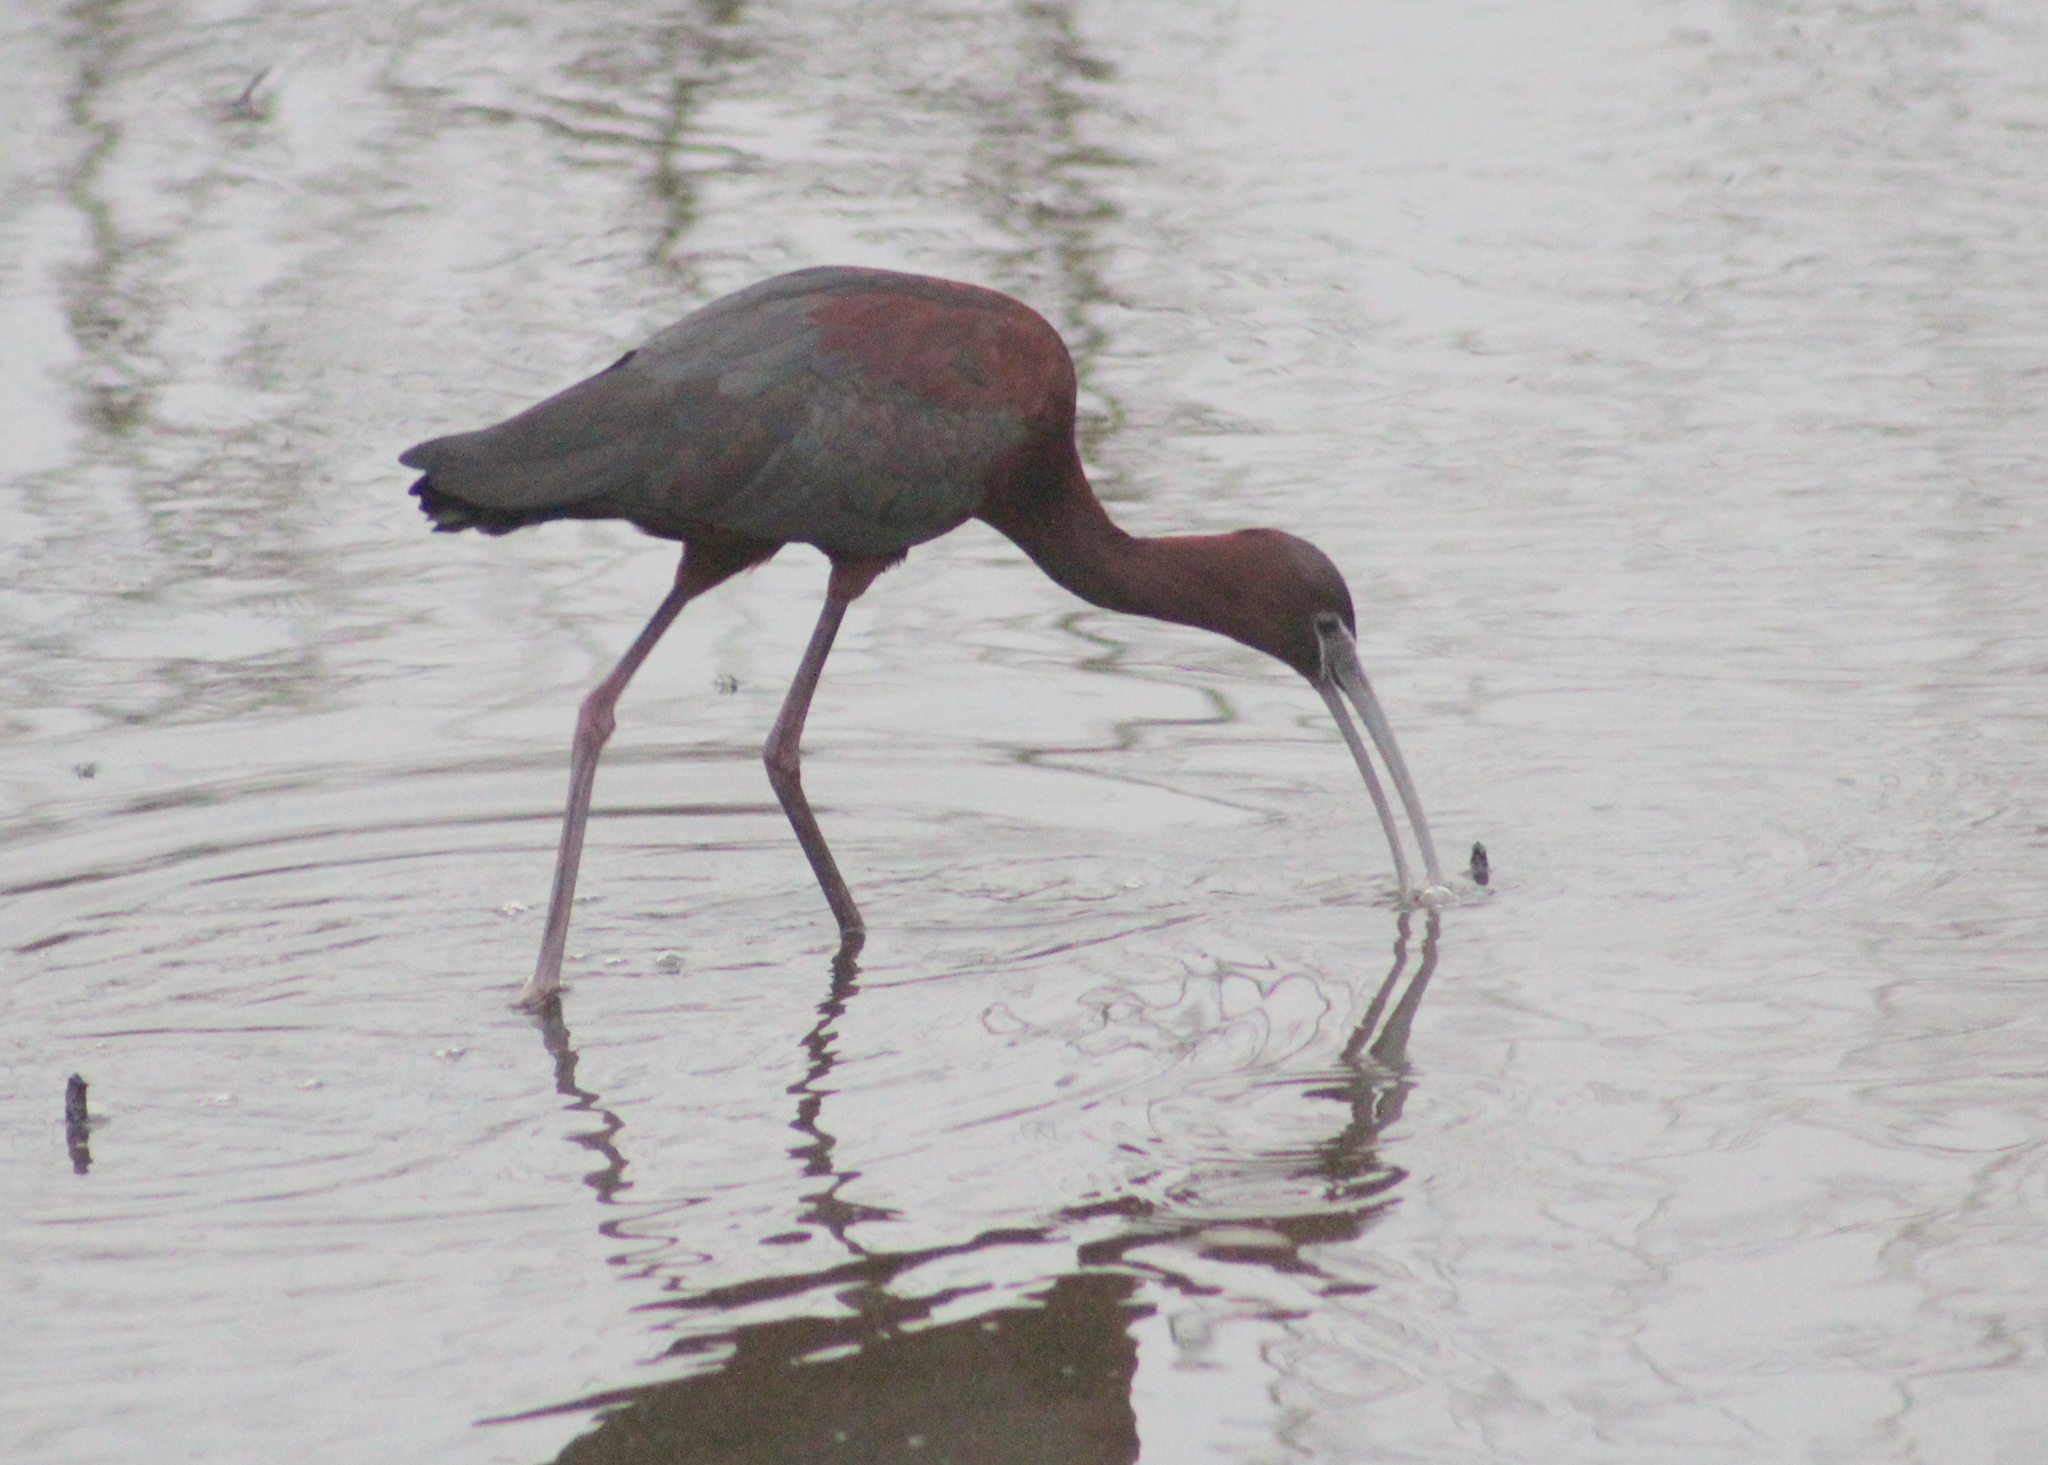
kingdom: Animalia
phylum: Chordata
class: Aves
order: Pelecaniformes
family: Threskiornithidae
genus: Plegadis
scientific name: Plegadis falcinellus
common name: Glossy ibis
